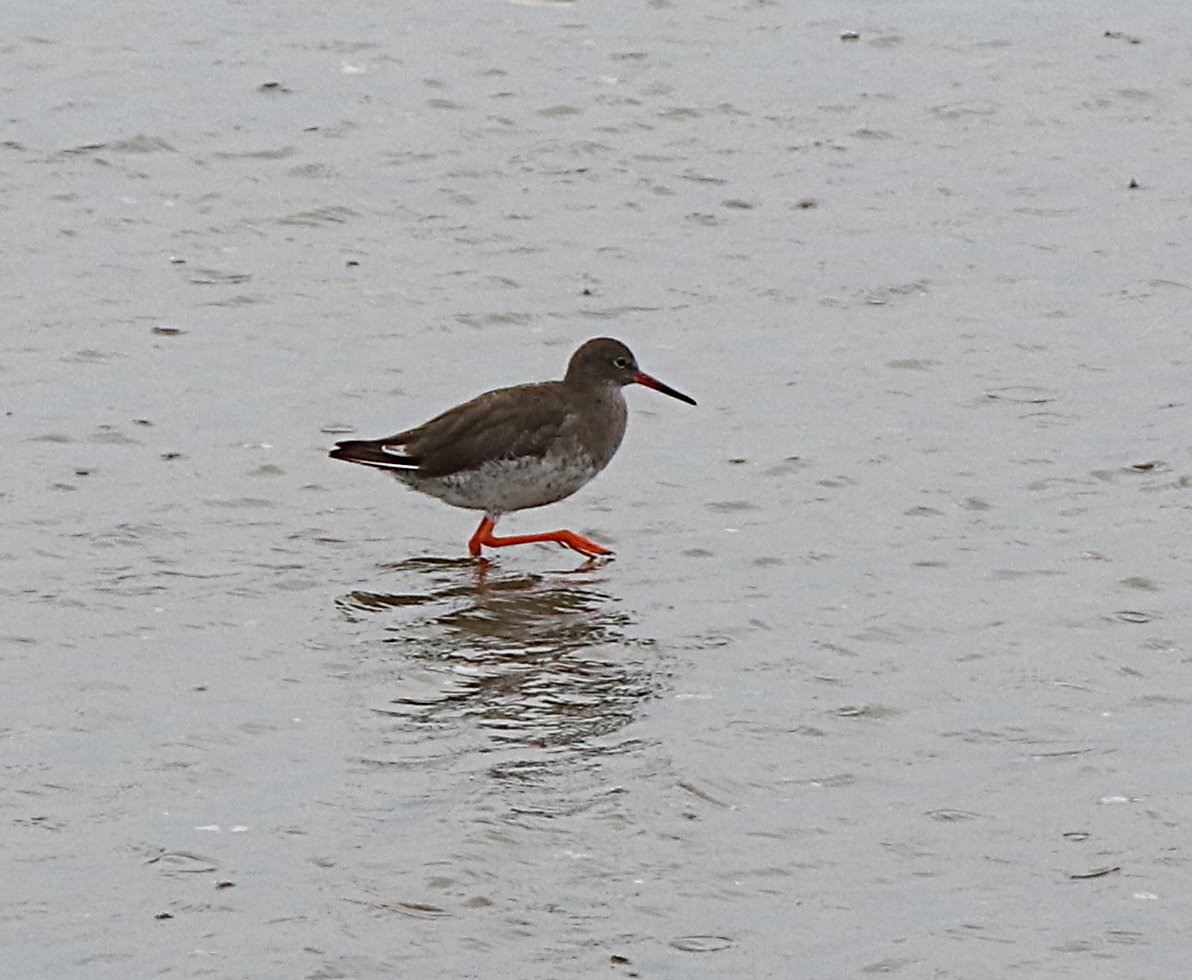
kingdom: Animalia
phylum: Chordata
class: Aves
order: Charadriiformes
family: Scolopacidae
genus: Tringa
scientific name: Tringa totanus
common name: Common redshank
